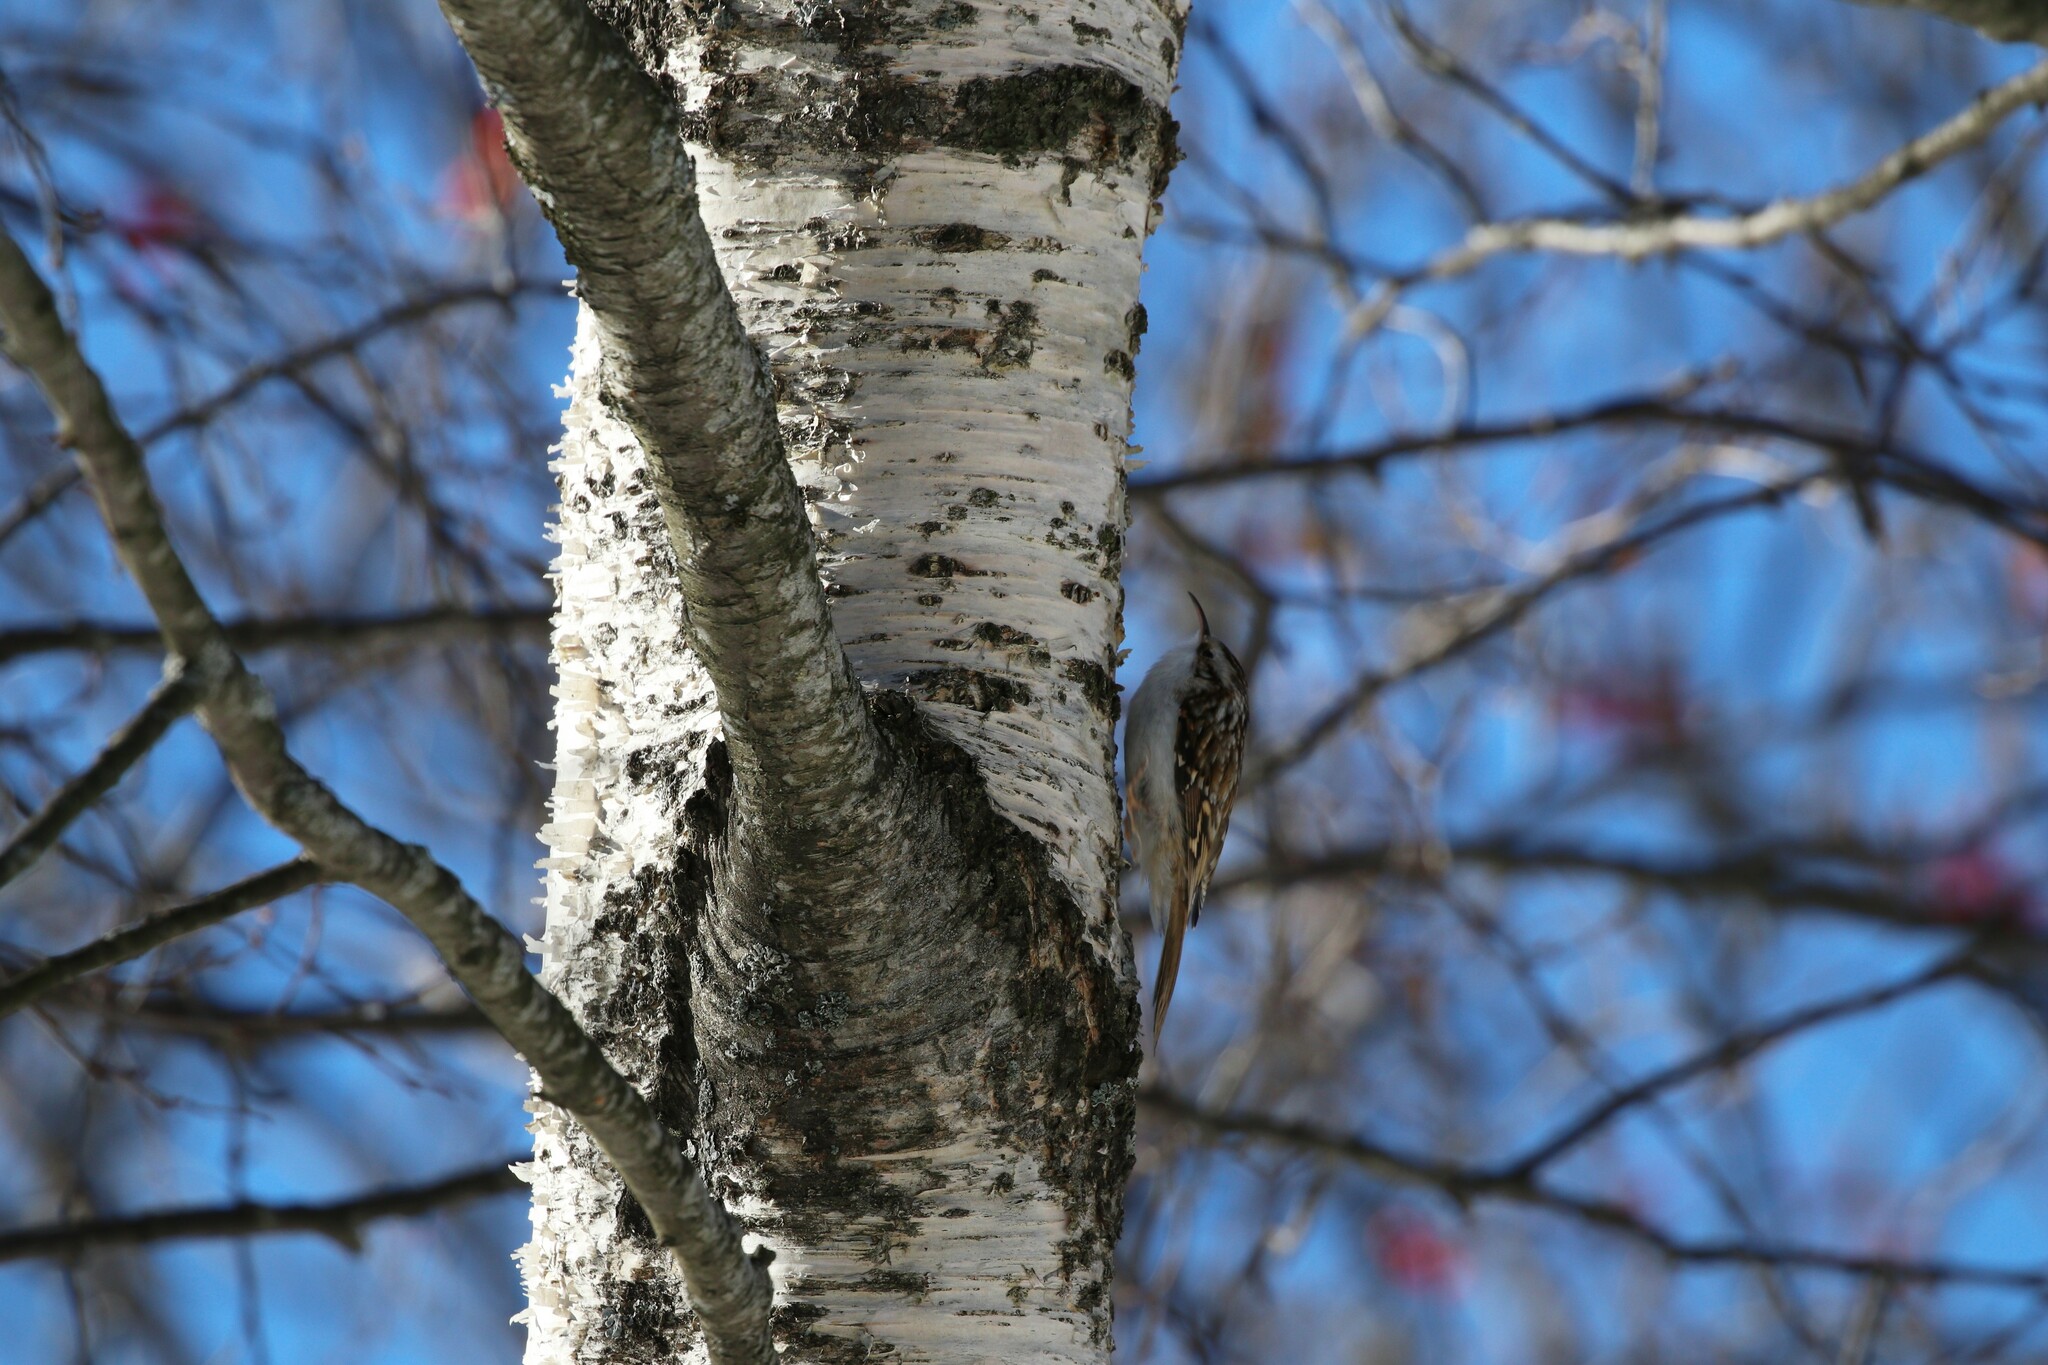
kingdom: Animalia
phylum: Chordata
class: Aves
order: Passeriformes
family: Certhiidae
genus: Certhia
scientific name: Certhia familiaris
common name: Eurasian treecreeper
